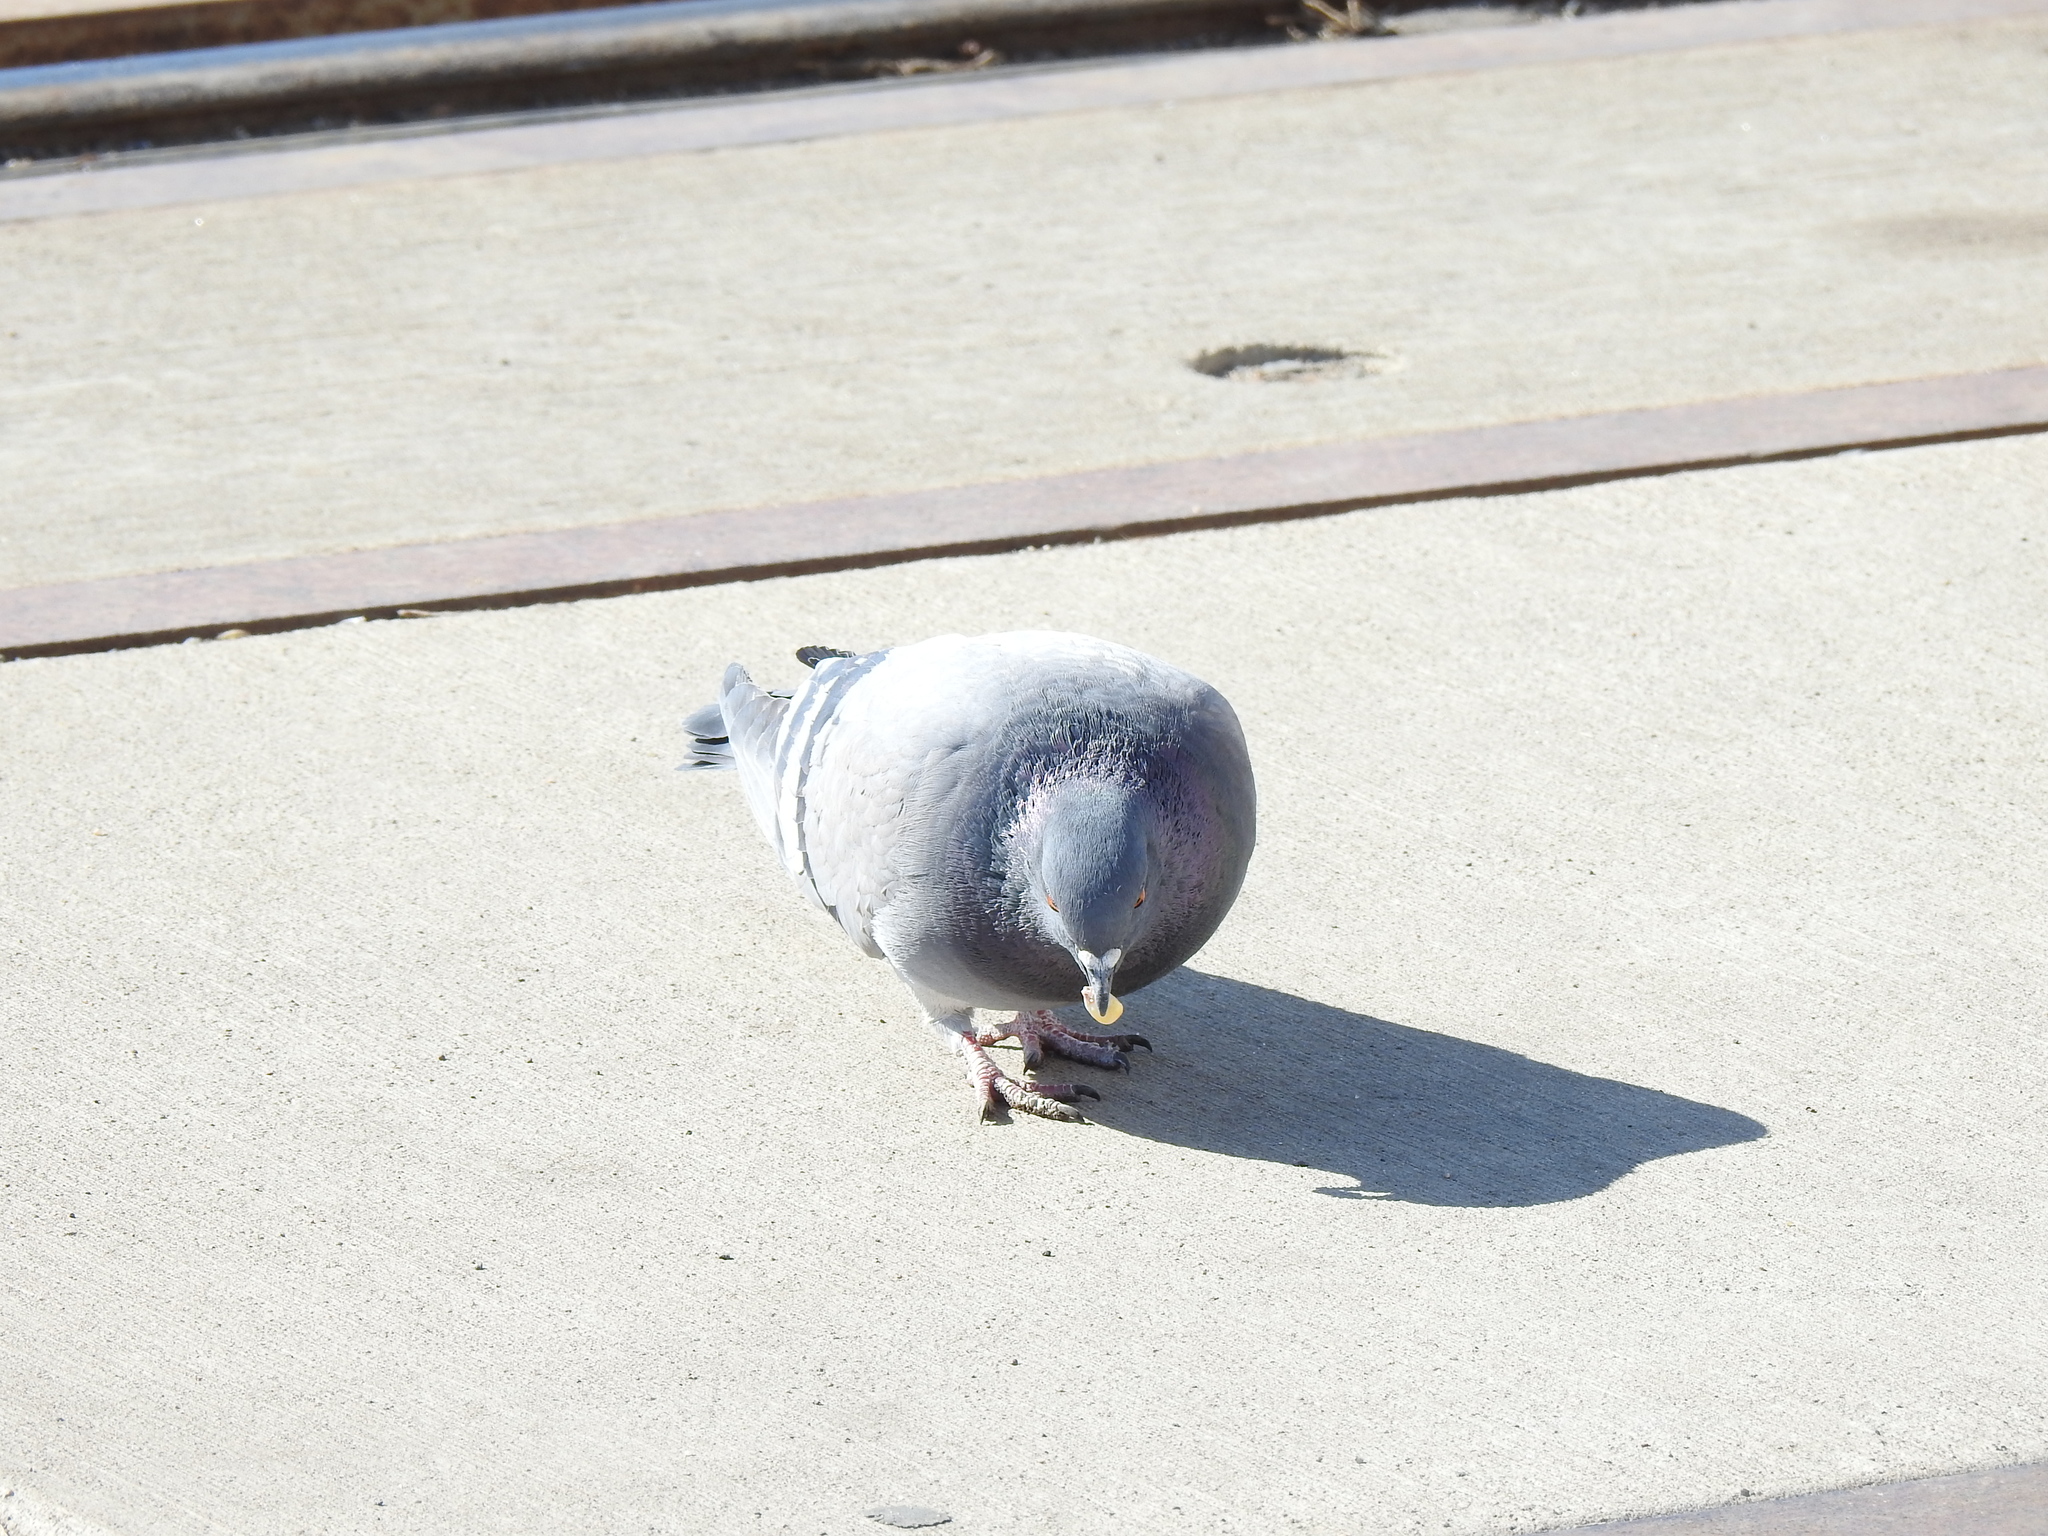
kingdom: Animalia
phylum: Chordata
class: Aves
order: Columbiformes
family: Columbidae
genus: Columba
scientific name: Columba livia
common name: Rock pigeon
